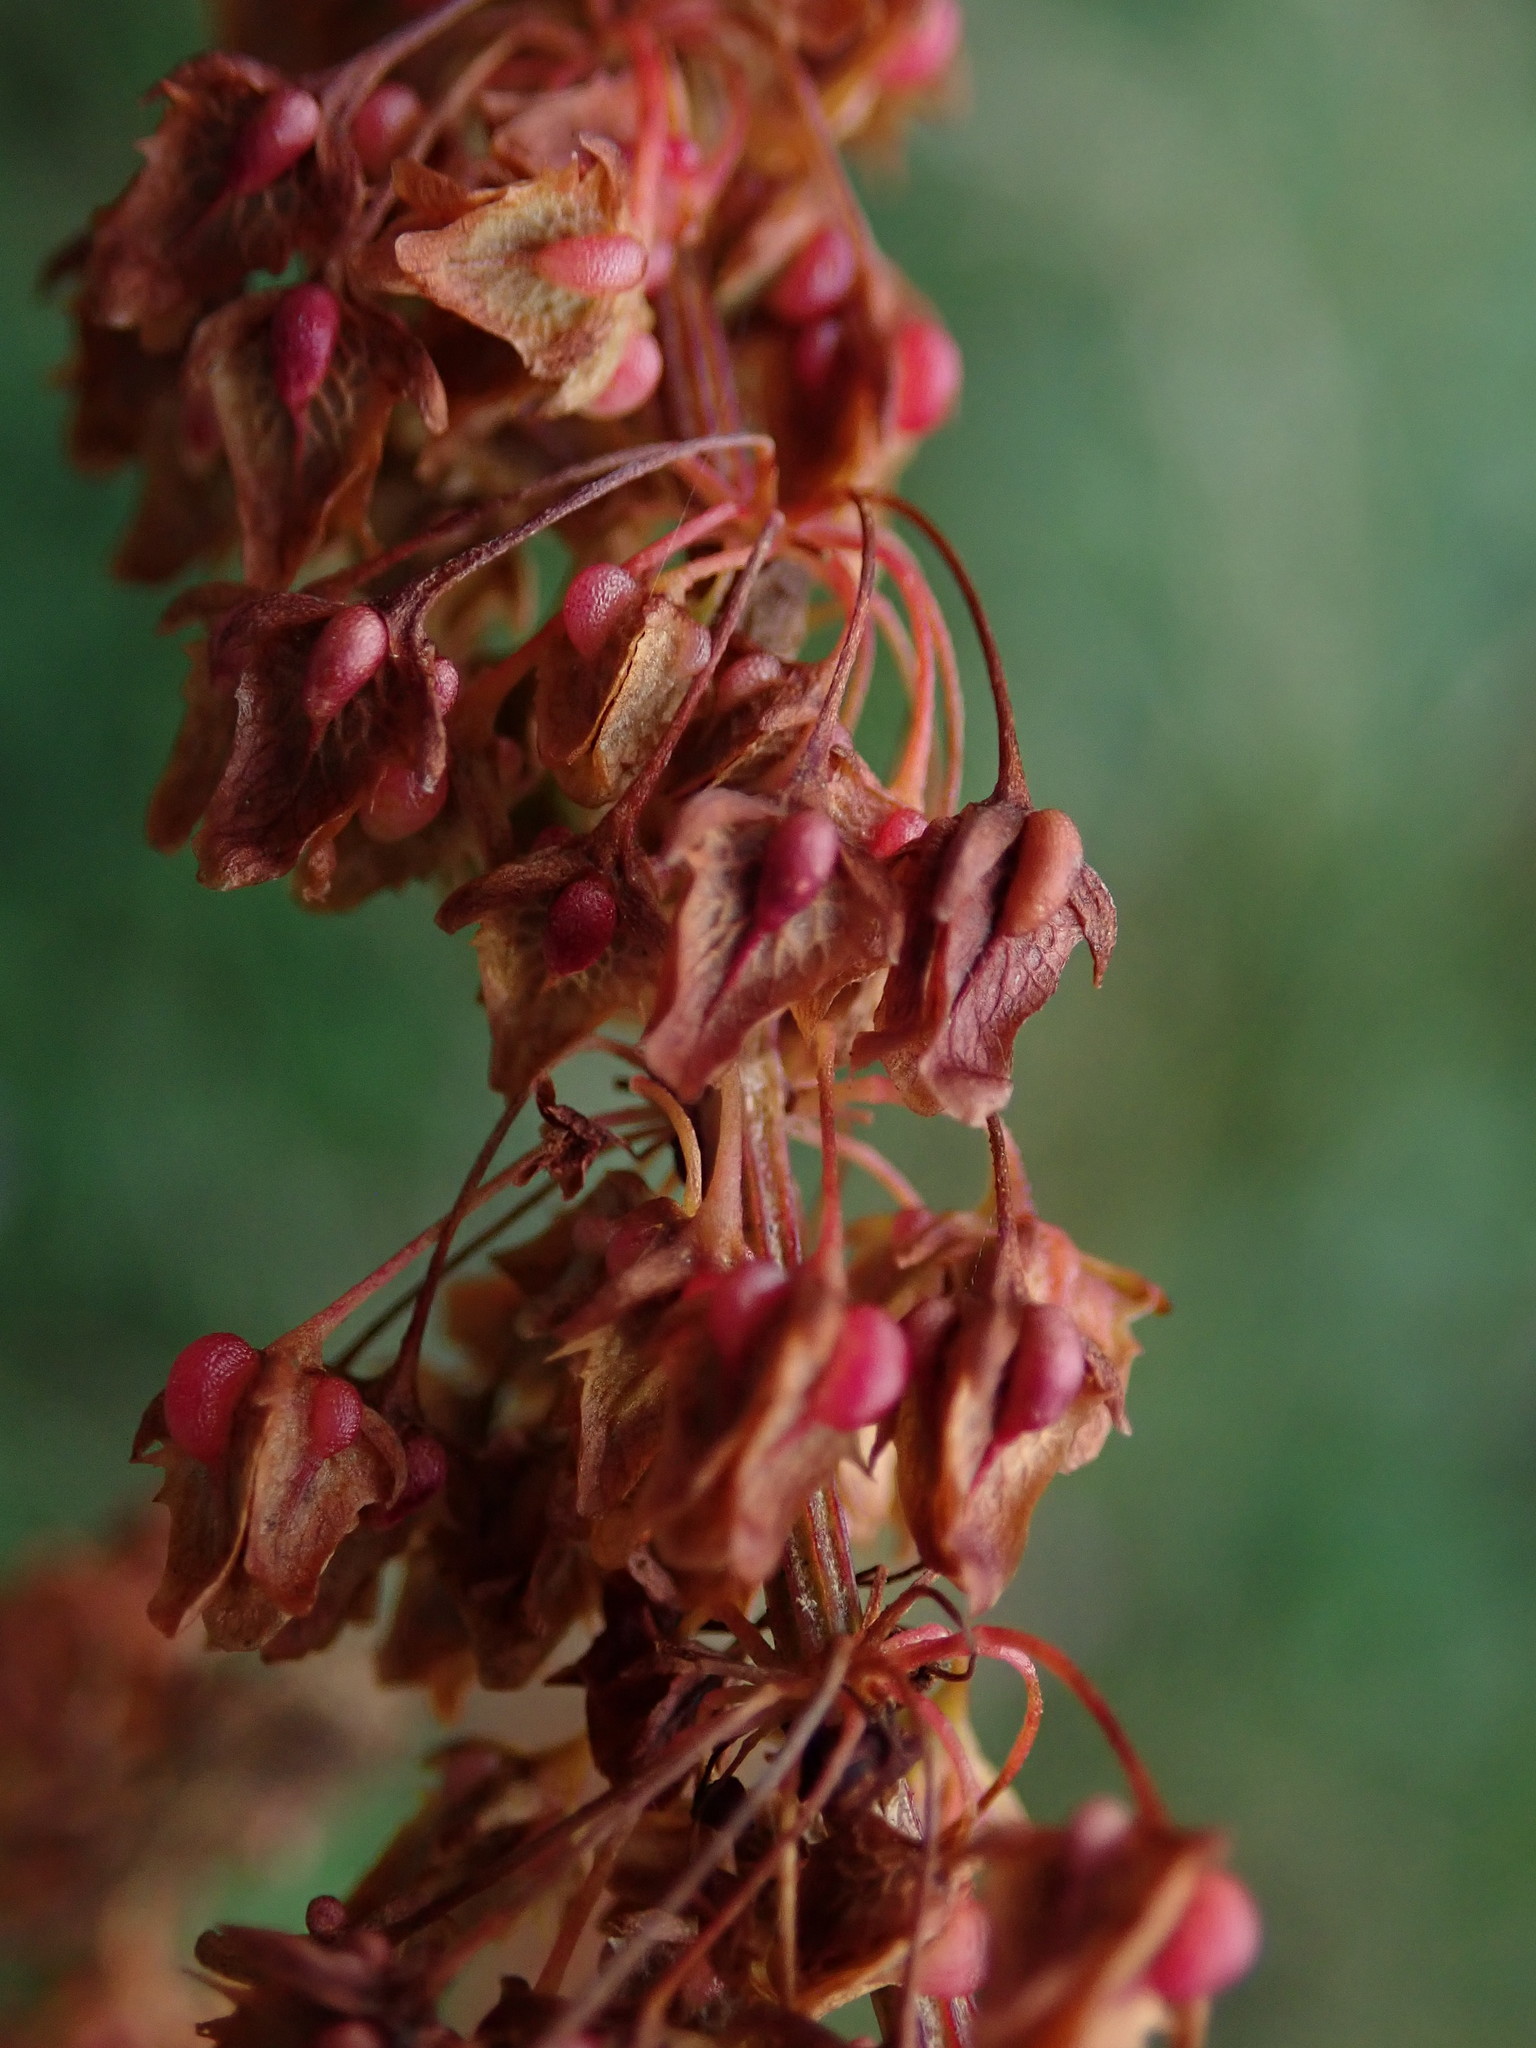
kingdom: Plantae
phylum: Tracheophyta
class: Magnoliopsida
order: Caryophyllales
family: Polygonaceae
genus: Rumex
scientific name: Rumex obtusifolius
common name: Bitter dock
